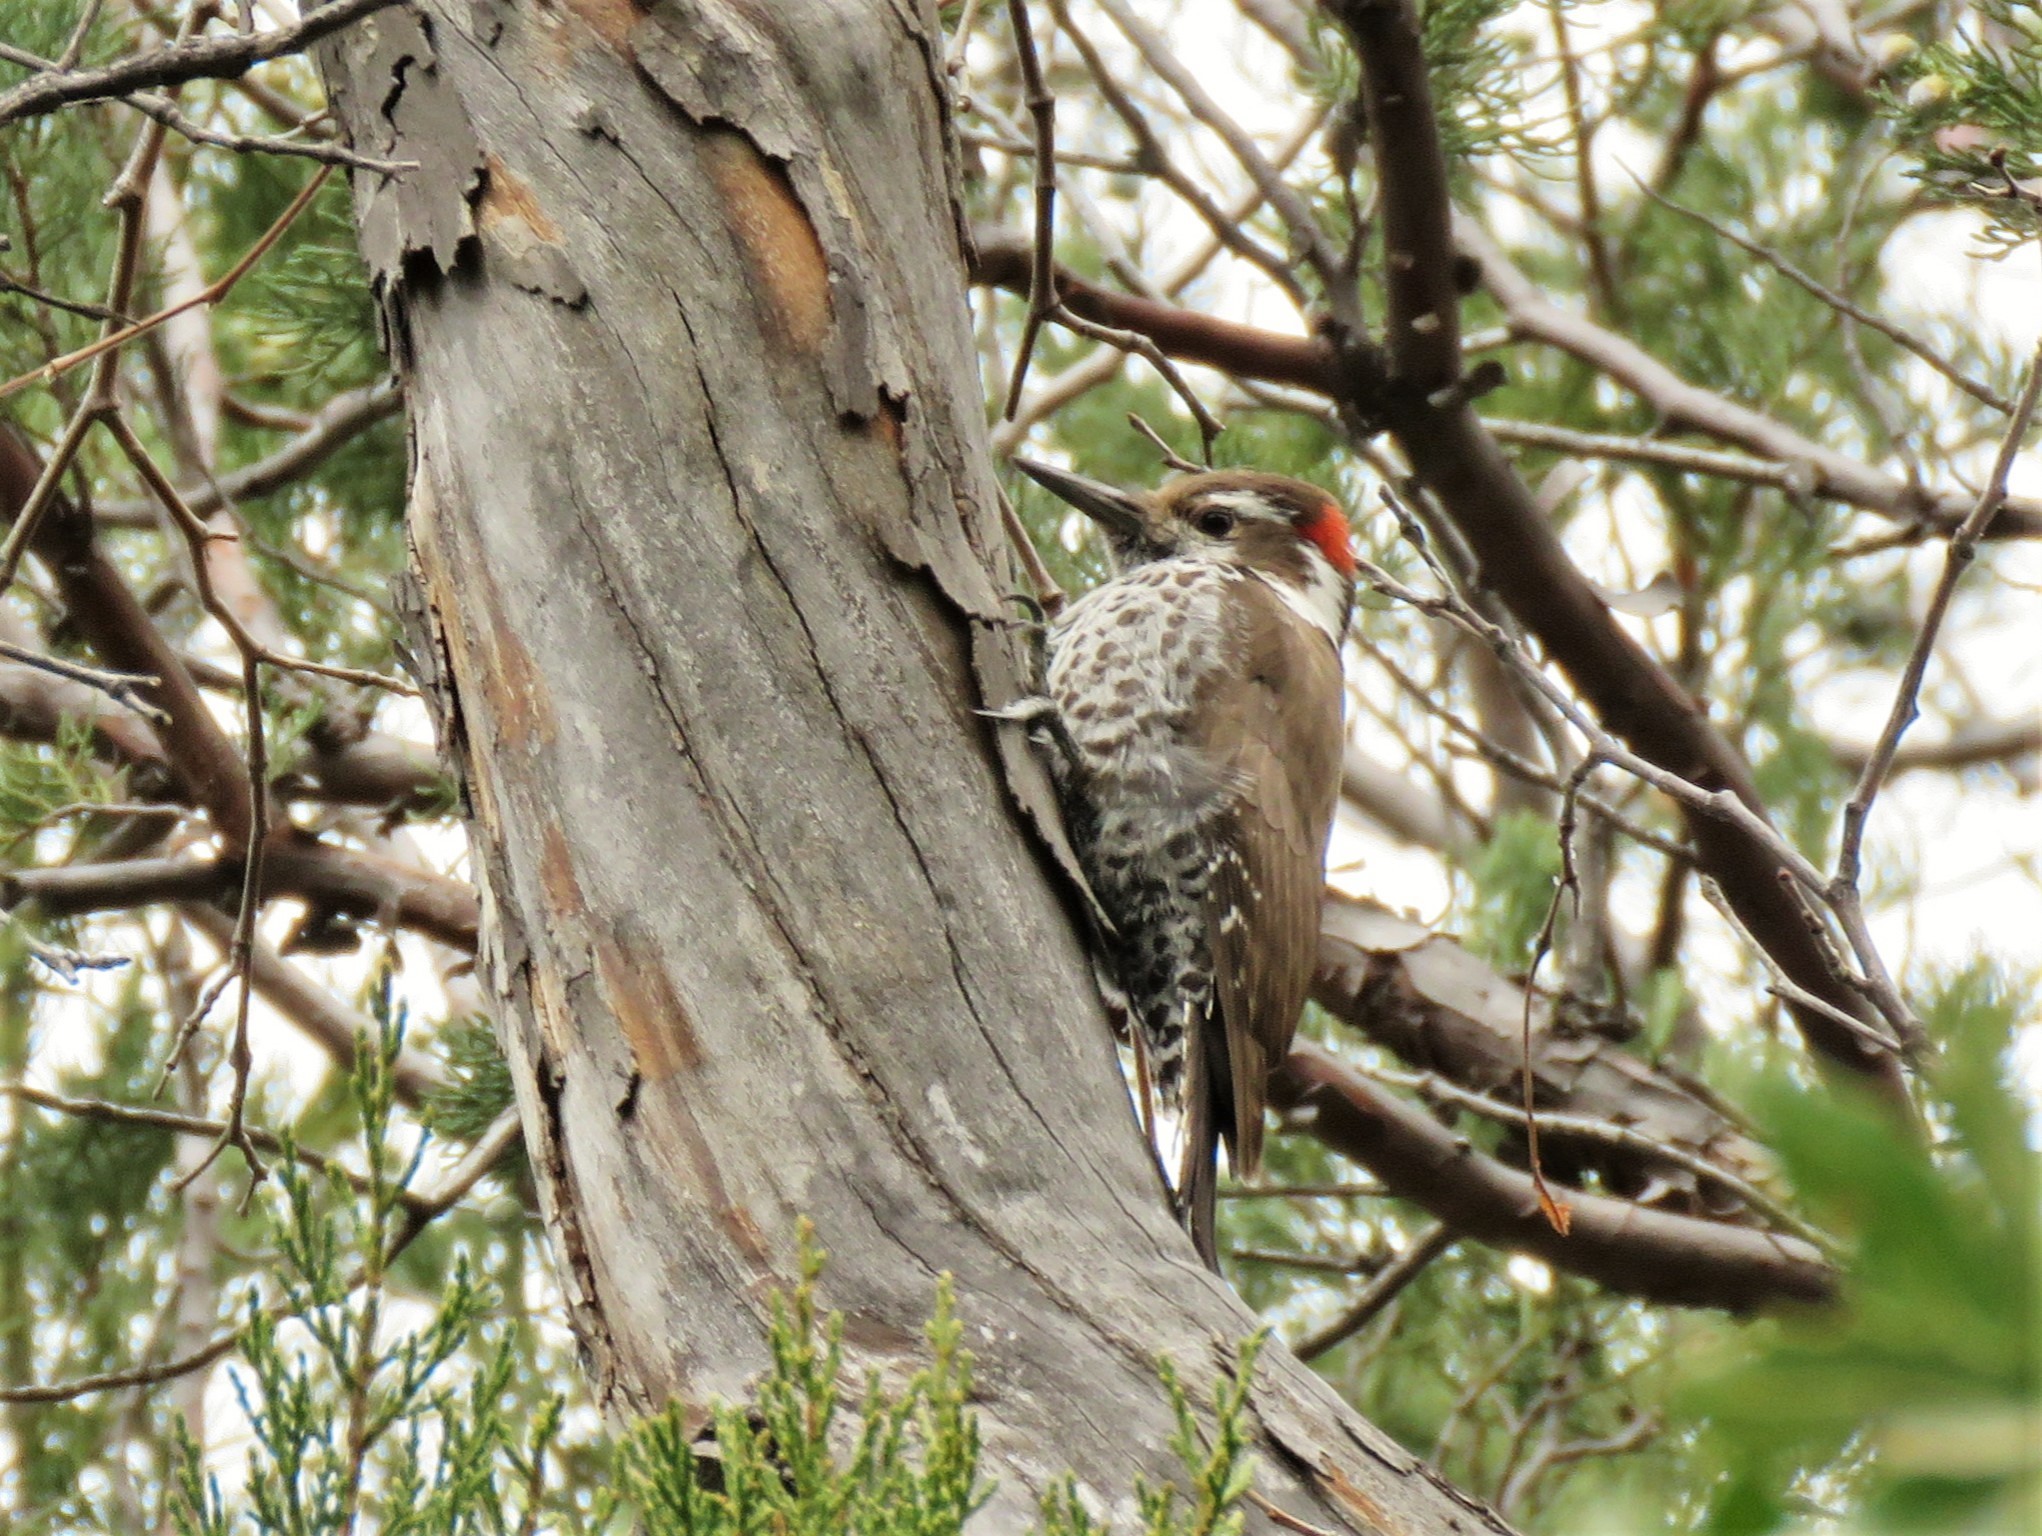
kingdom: Animalia
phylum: Chordata
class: Aves
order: Piciformes
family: Picidae
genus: Leuconotopicus
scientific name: Leuconotopicus arizonae
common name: Arizona woodpecker
